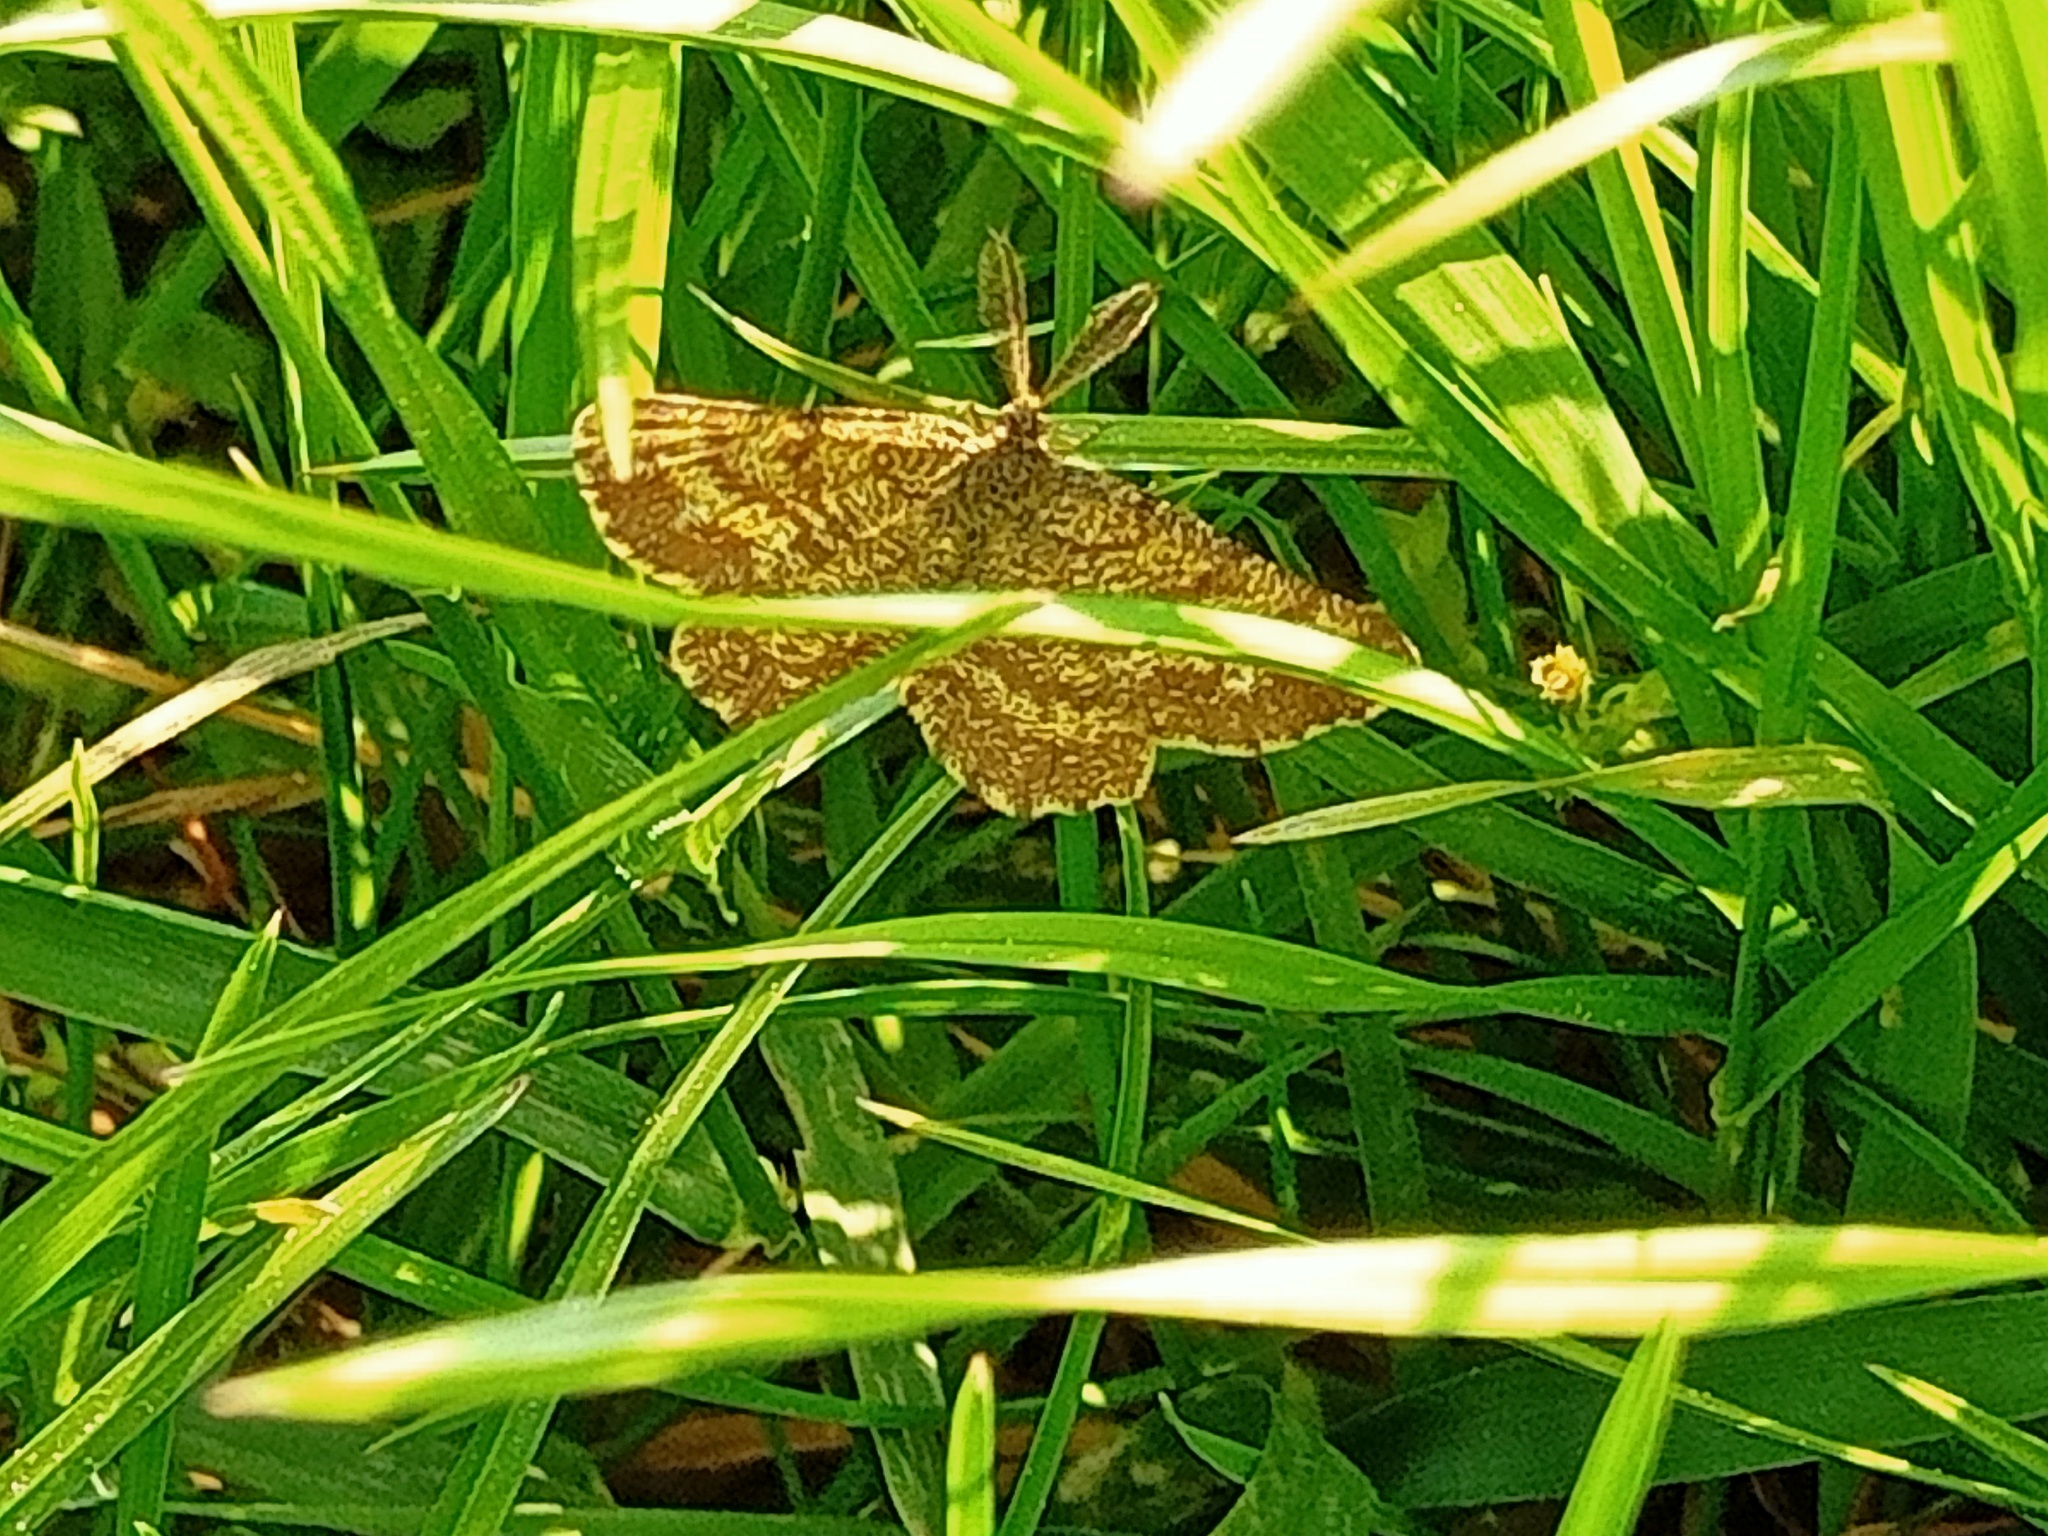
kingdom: Animalia
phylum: Arthropoda
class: Insecta
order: Lepidoptera
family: Geometridae
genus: Ematurga
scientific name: Ematurga atomaria
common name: Common heath
